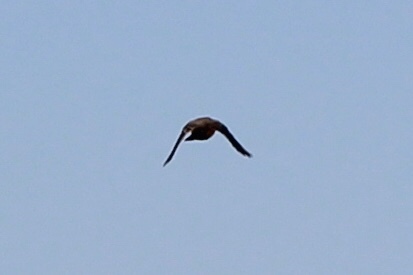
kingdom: Animalia
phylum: Chordata
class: Aves
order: Passeriformes
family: Tyrannidae
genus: Sayornis
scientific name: Sayornis saya
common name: Say's phoebe
